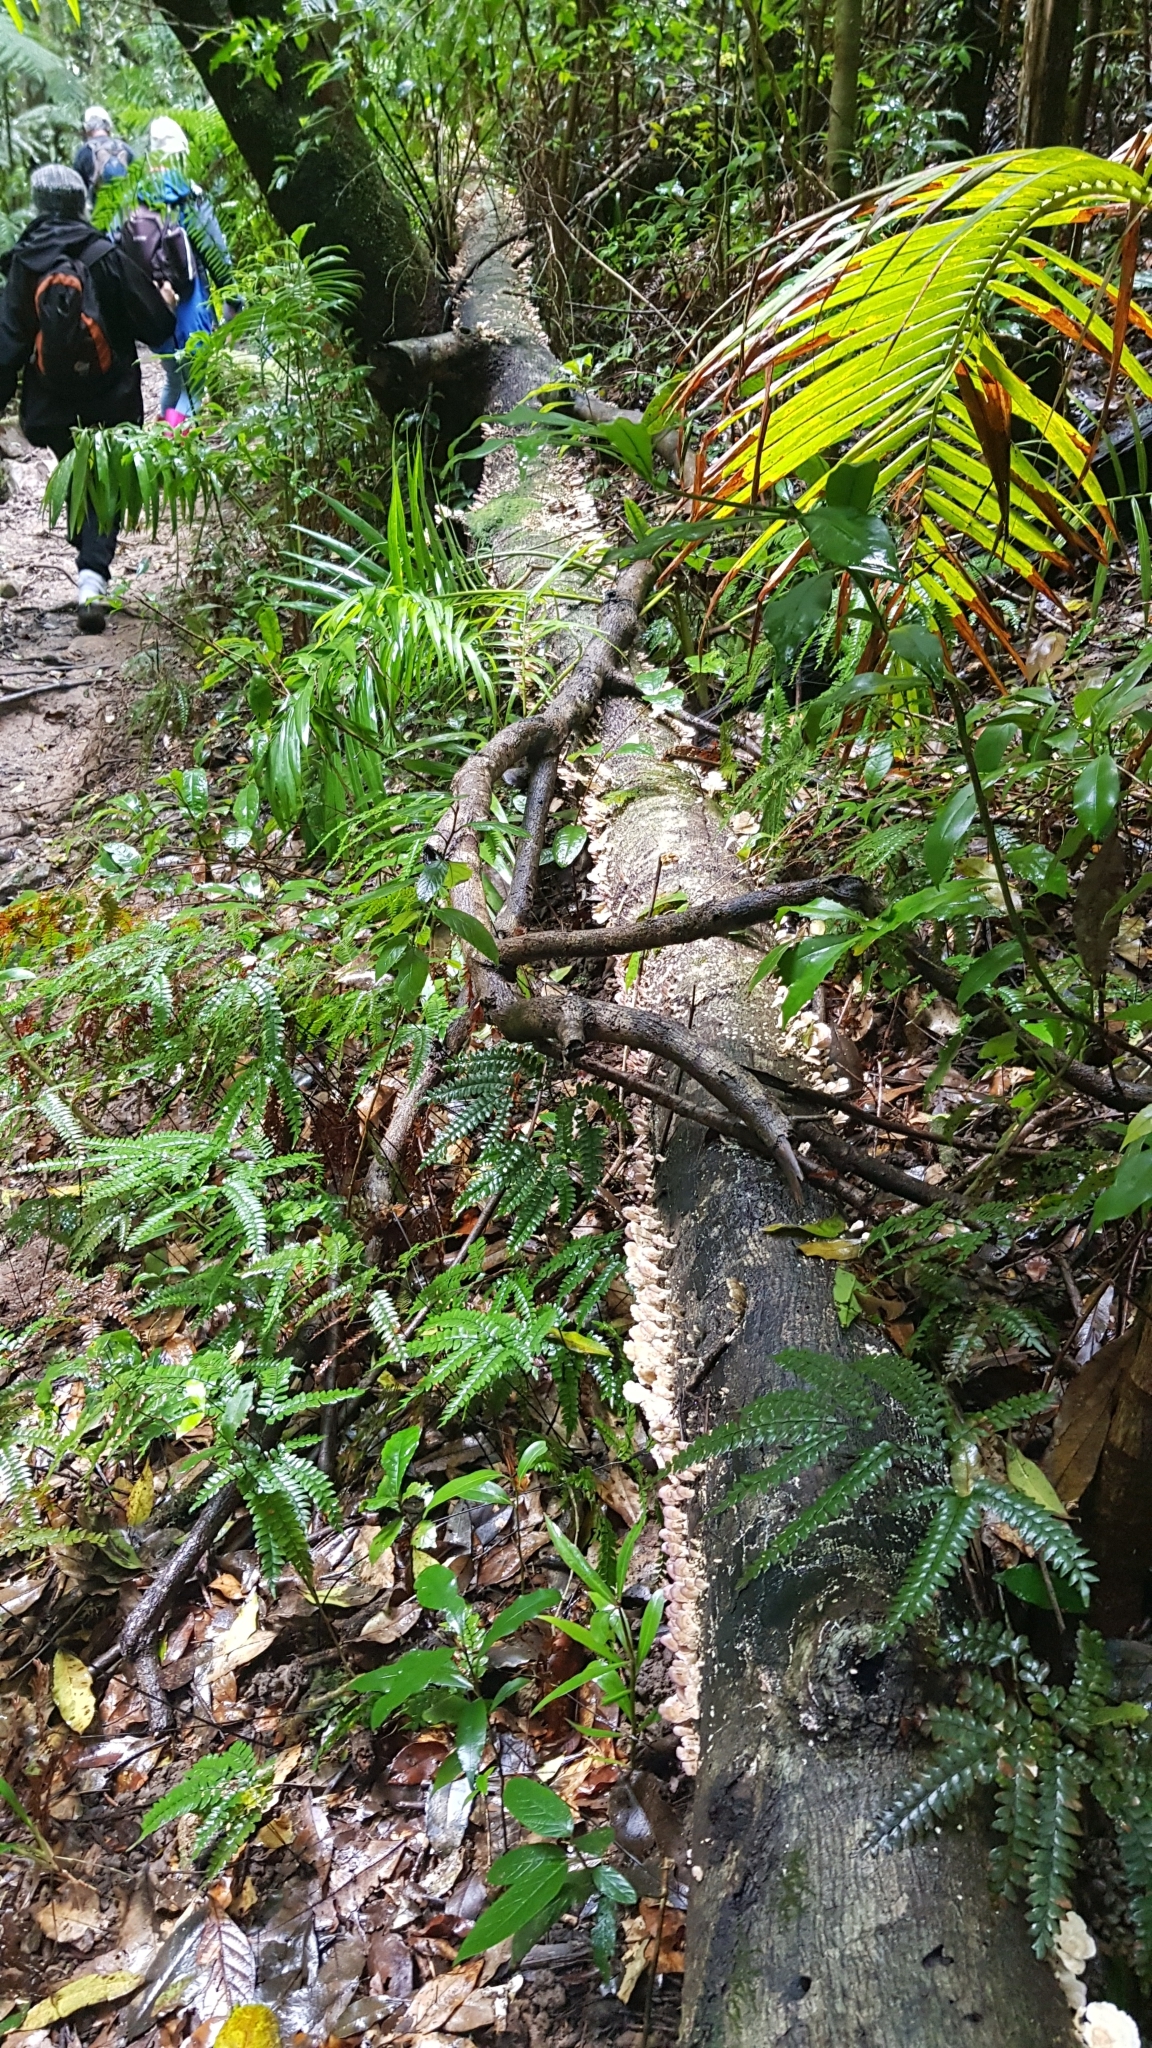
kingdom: Fungi
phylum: Basidiomycota
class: Agaricomycetes
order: Hymenochaetales
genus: Trichaptum
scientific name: Trichaptum biforme
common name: Violet-toothed polypore
